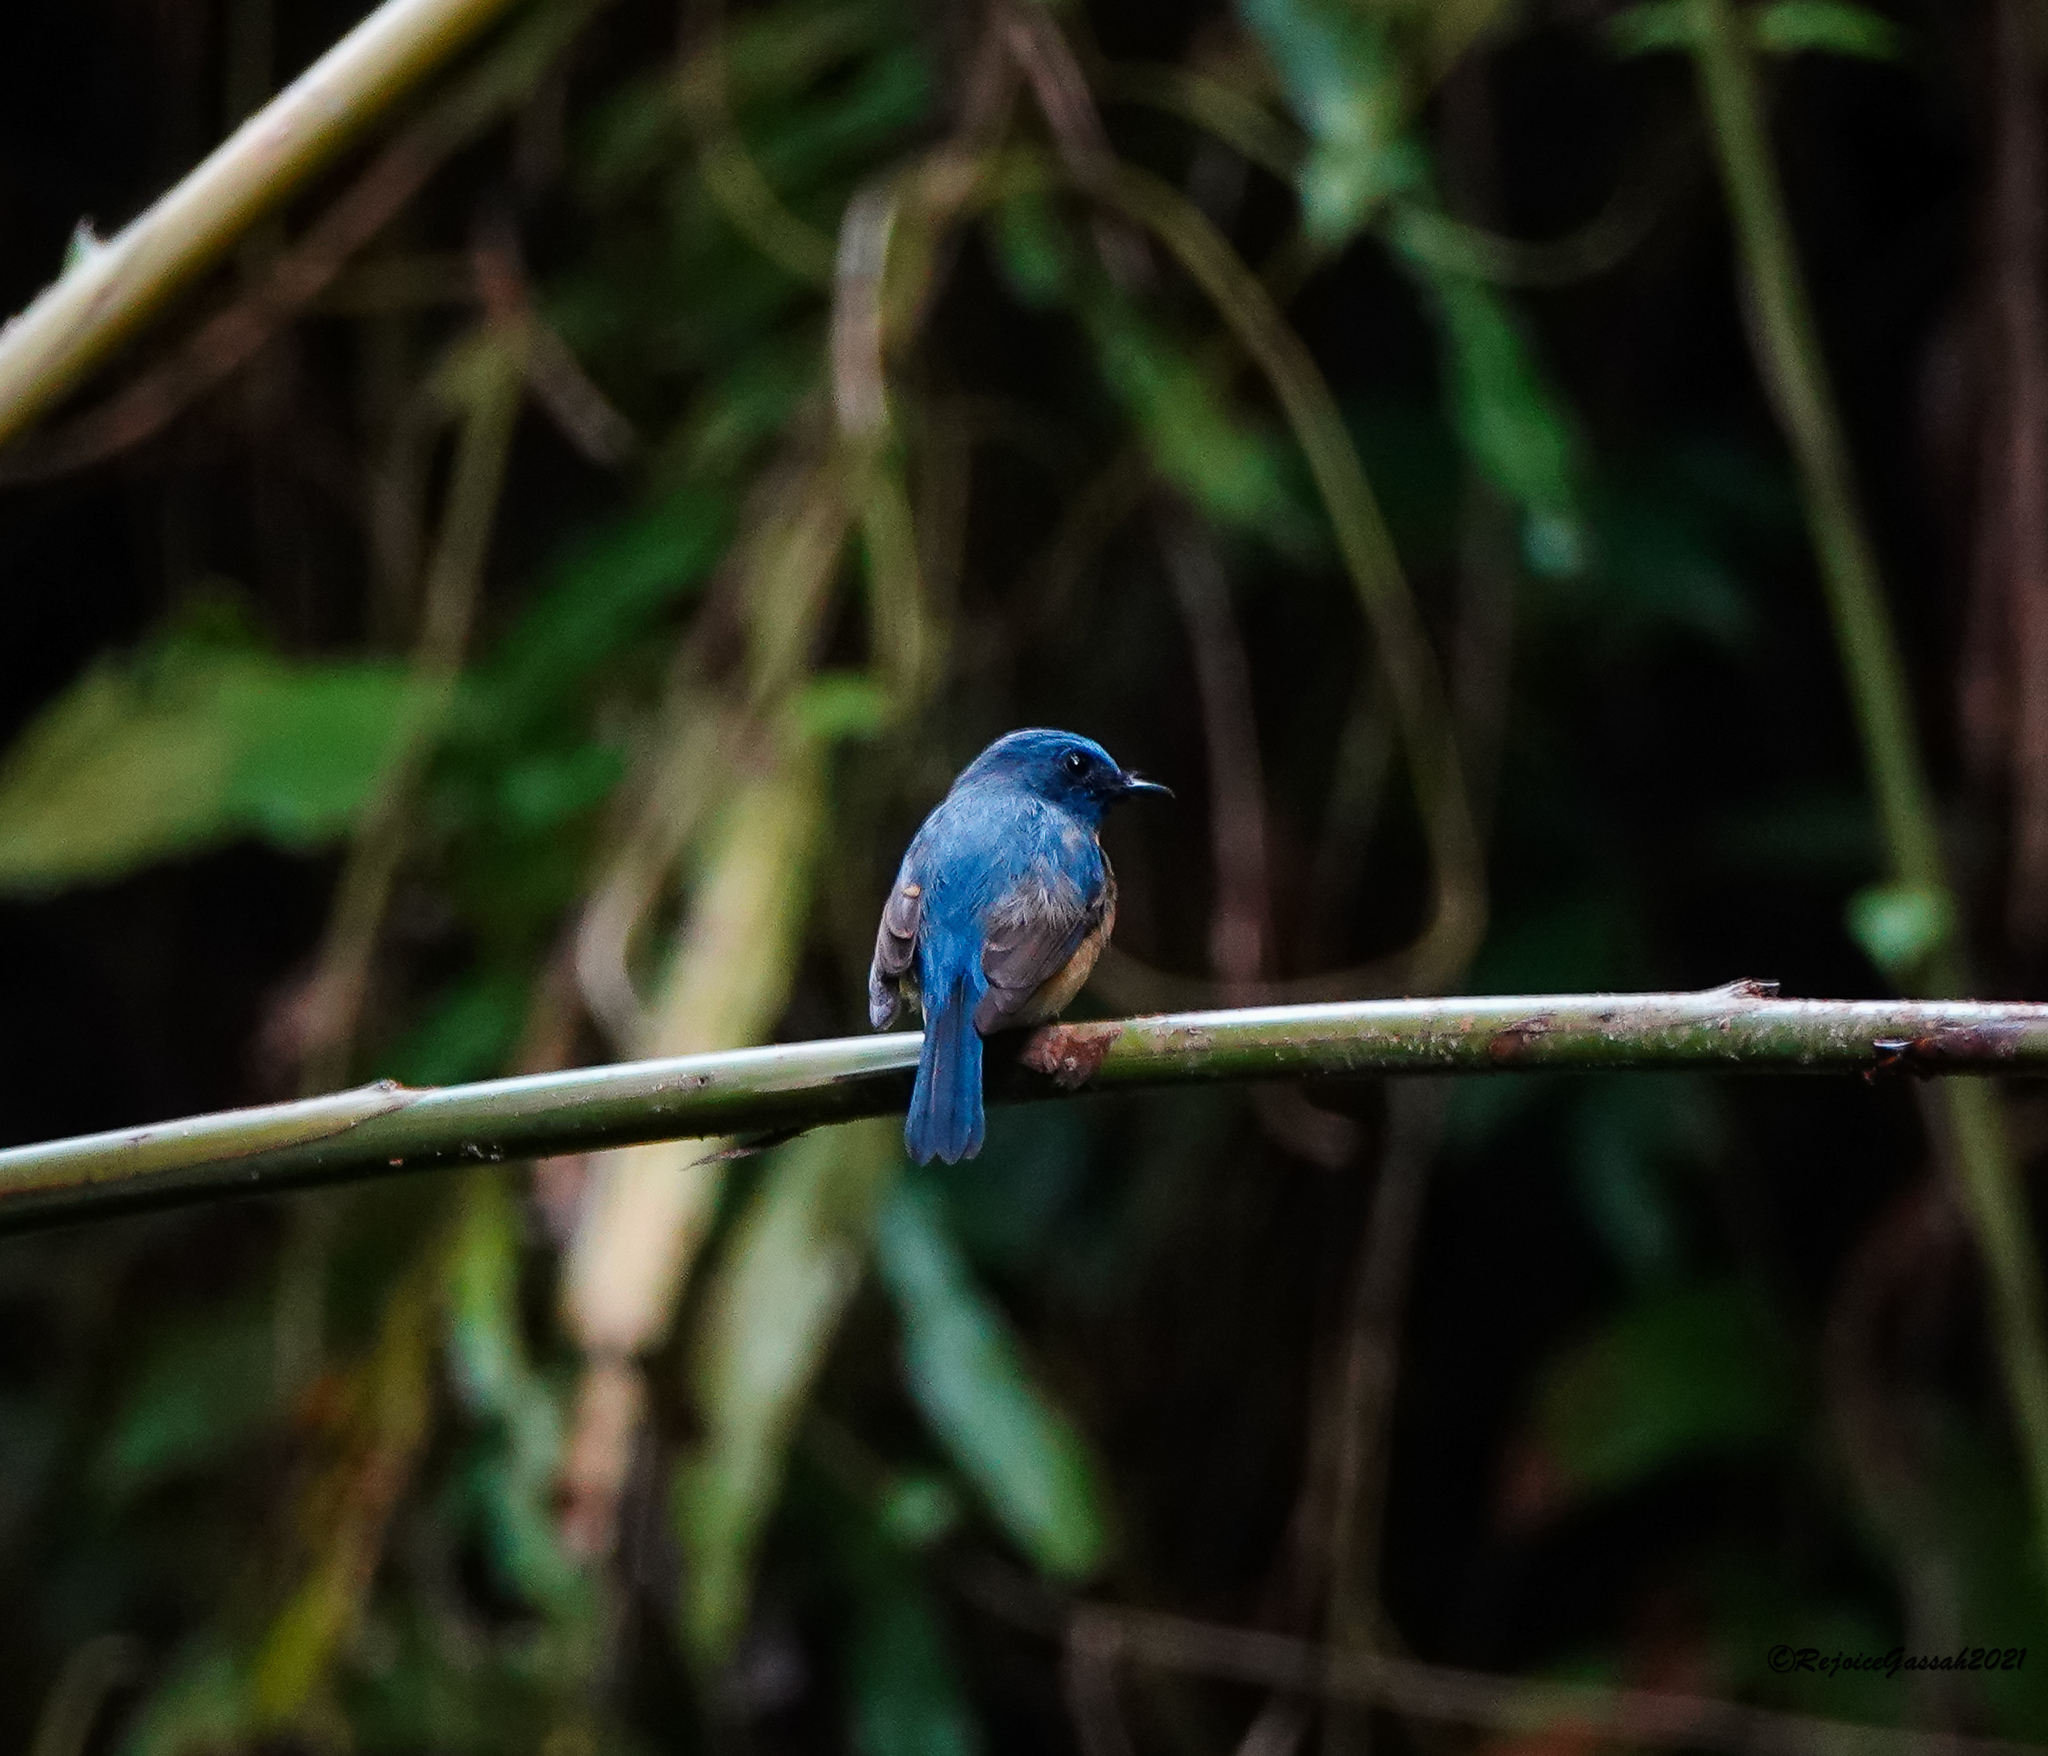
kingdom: Animalia
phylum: Chordata
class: Aves
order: Passeriformes
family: Muscicapidae
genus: Cyornis
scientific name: Cyornis rubeculoides
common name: Blue-throated blue flycatcher
